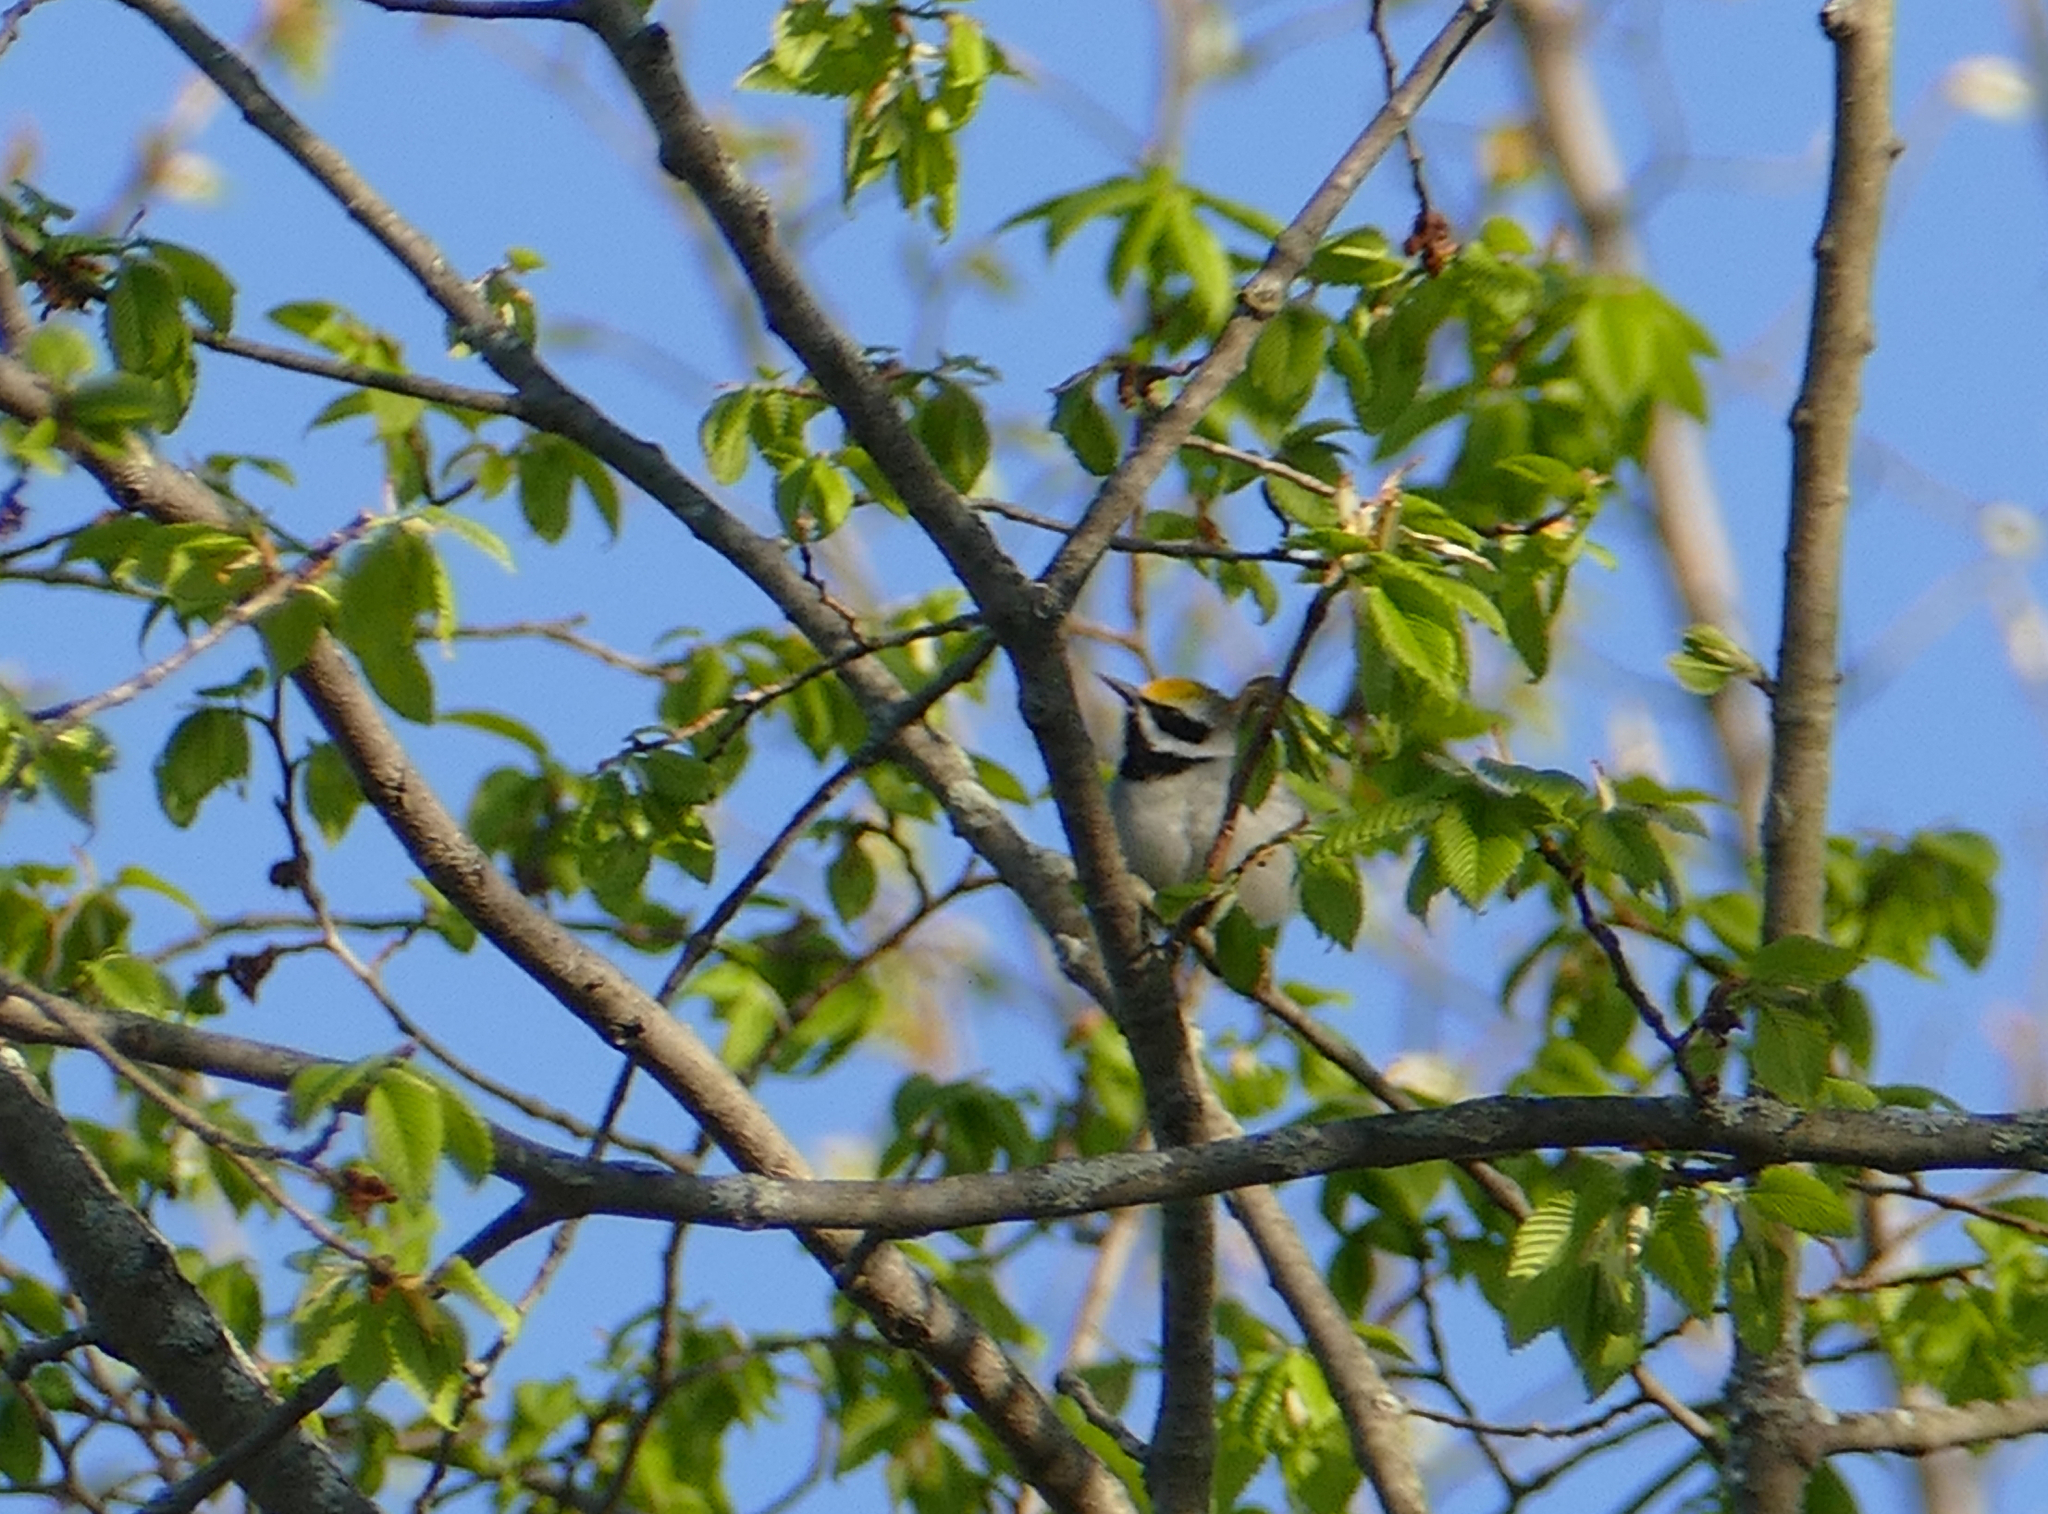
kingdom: Animalia
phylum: Chordata
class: Aves
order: Passeriformes
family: Parulidae
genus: Vermivora
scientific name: Vermivora chrysoptera
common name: Golden-winged warbler
